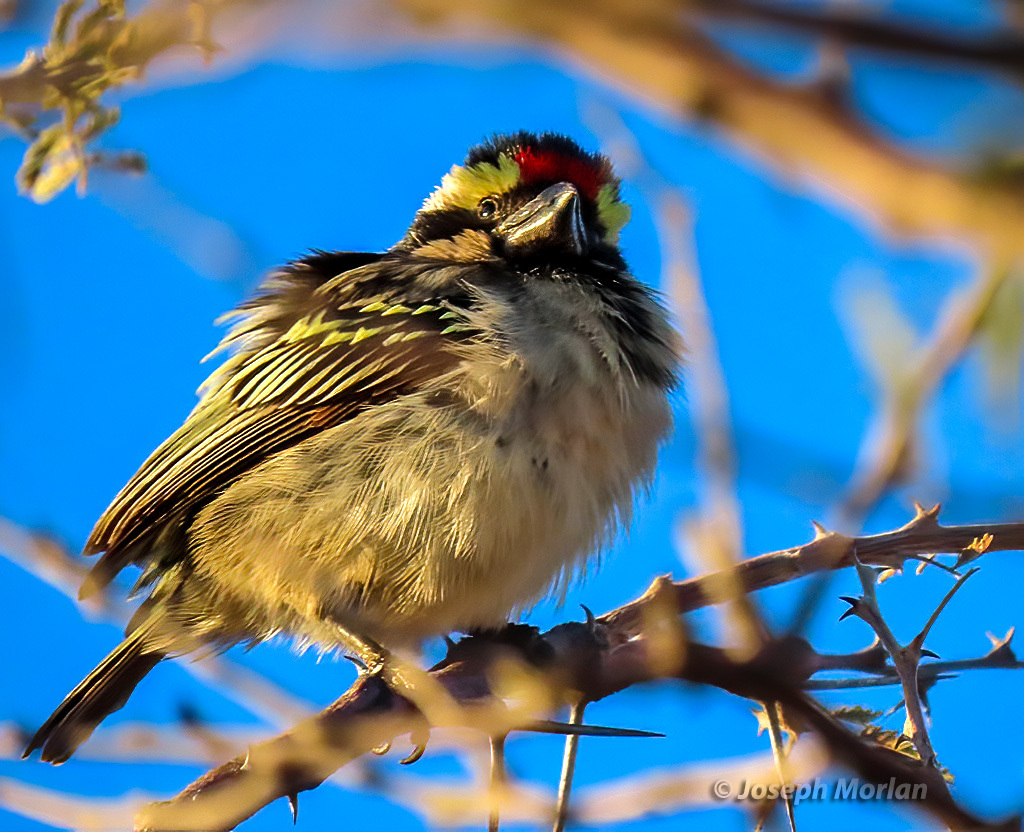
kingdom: Animalia
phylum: Chordata
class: Aves
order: Piciformes
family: Lybiidae
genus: Tricholaema
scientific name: Tricholaema leucomelas
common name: Acacia pied barbet
